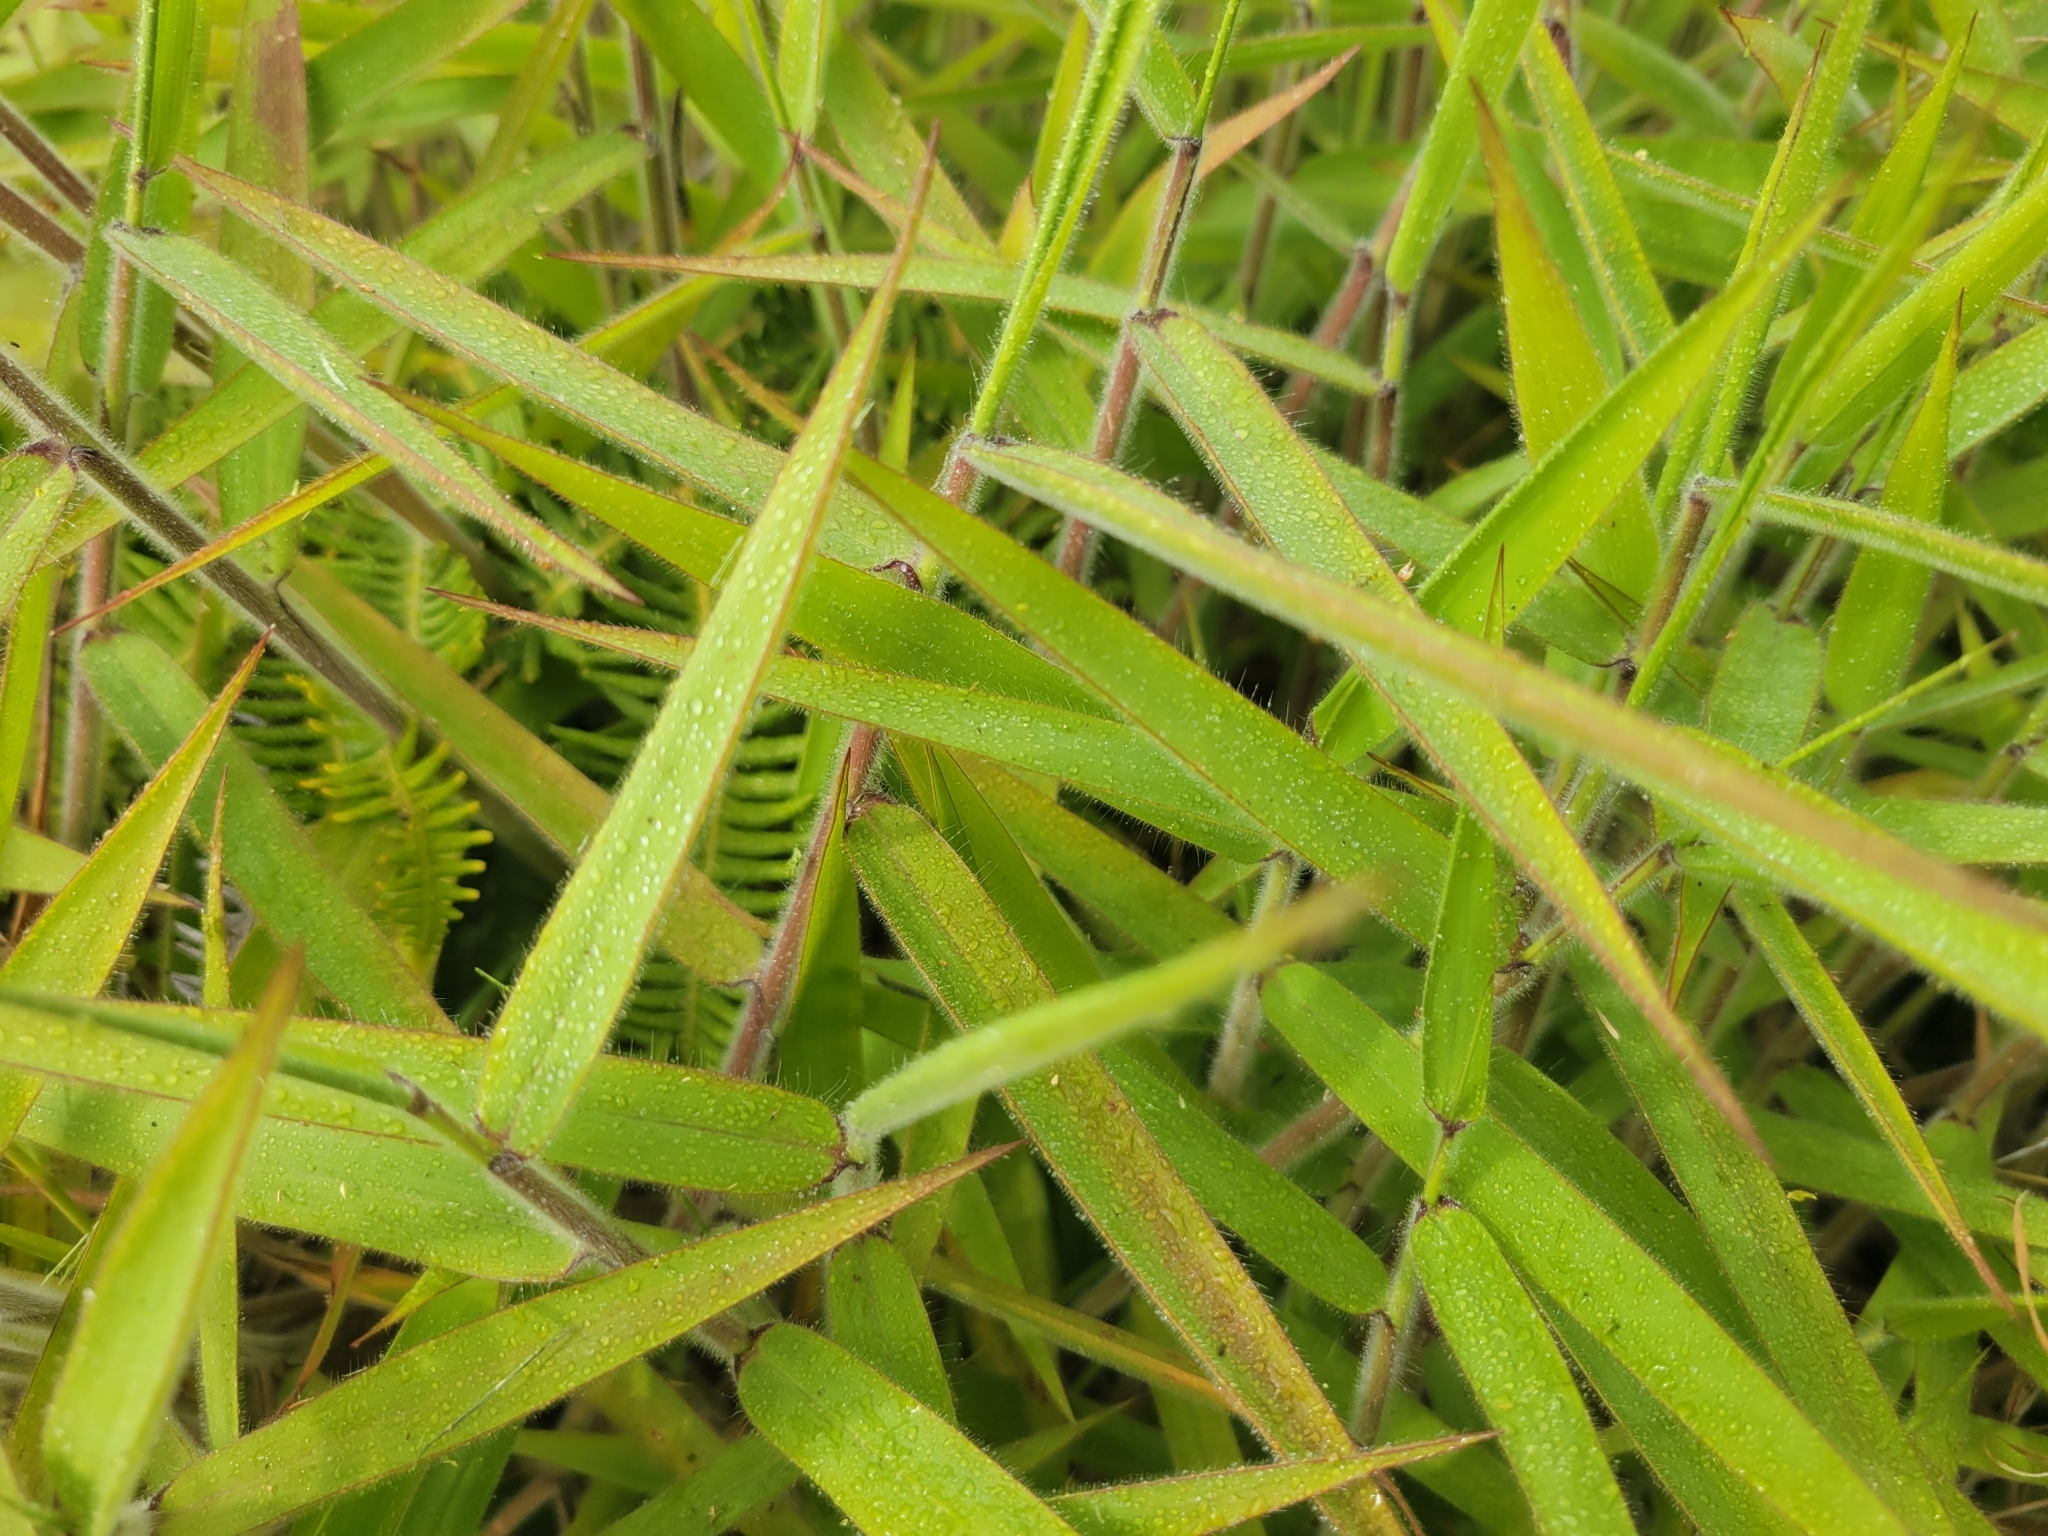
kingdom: Plantae
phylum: Tracheophyta
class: Liliopsida
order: Poales
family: Poaceae
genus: Melinis
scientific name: Melinis minutiflora
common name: Molassesgrass
